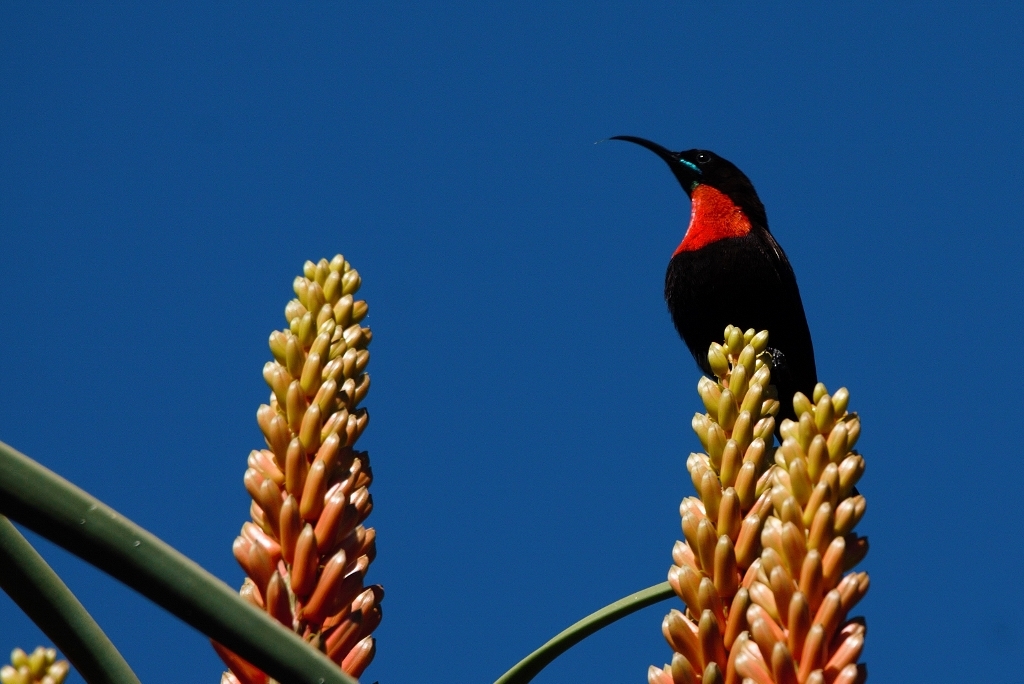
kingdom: Animalia
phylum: Chordata
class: Aves
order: Passeriformes
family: Nectariniidae
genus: Chalcomitra
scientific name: Chalcomitra senegalensis
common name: Scarlet-chested sunbird
